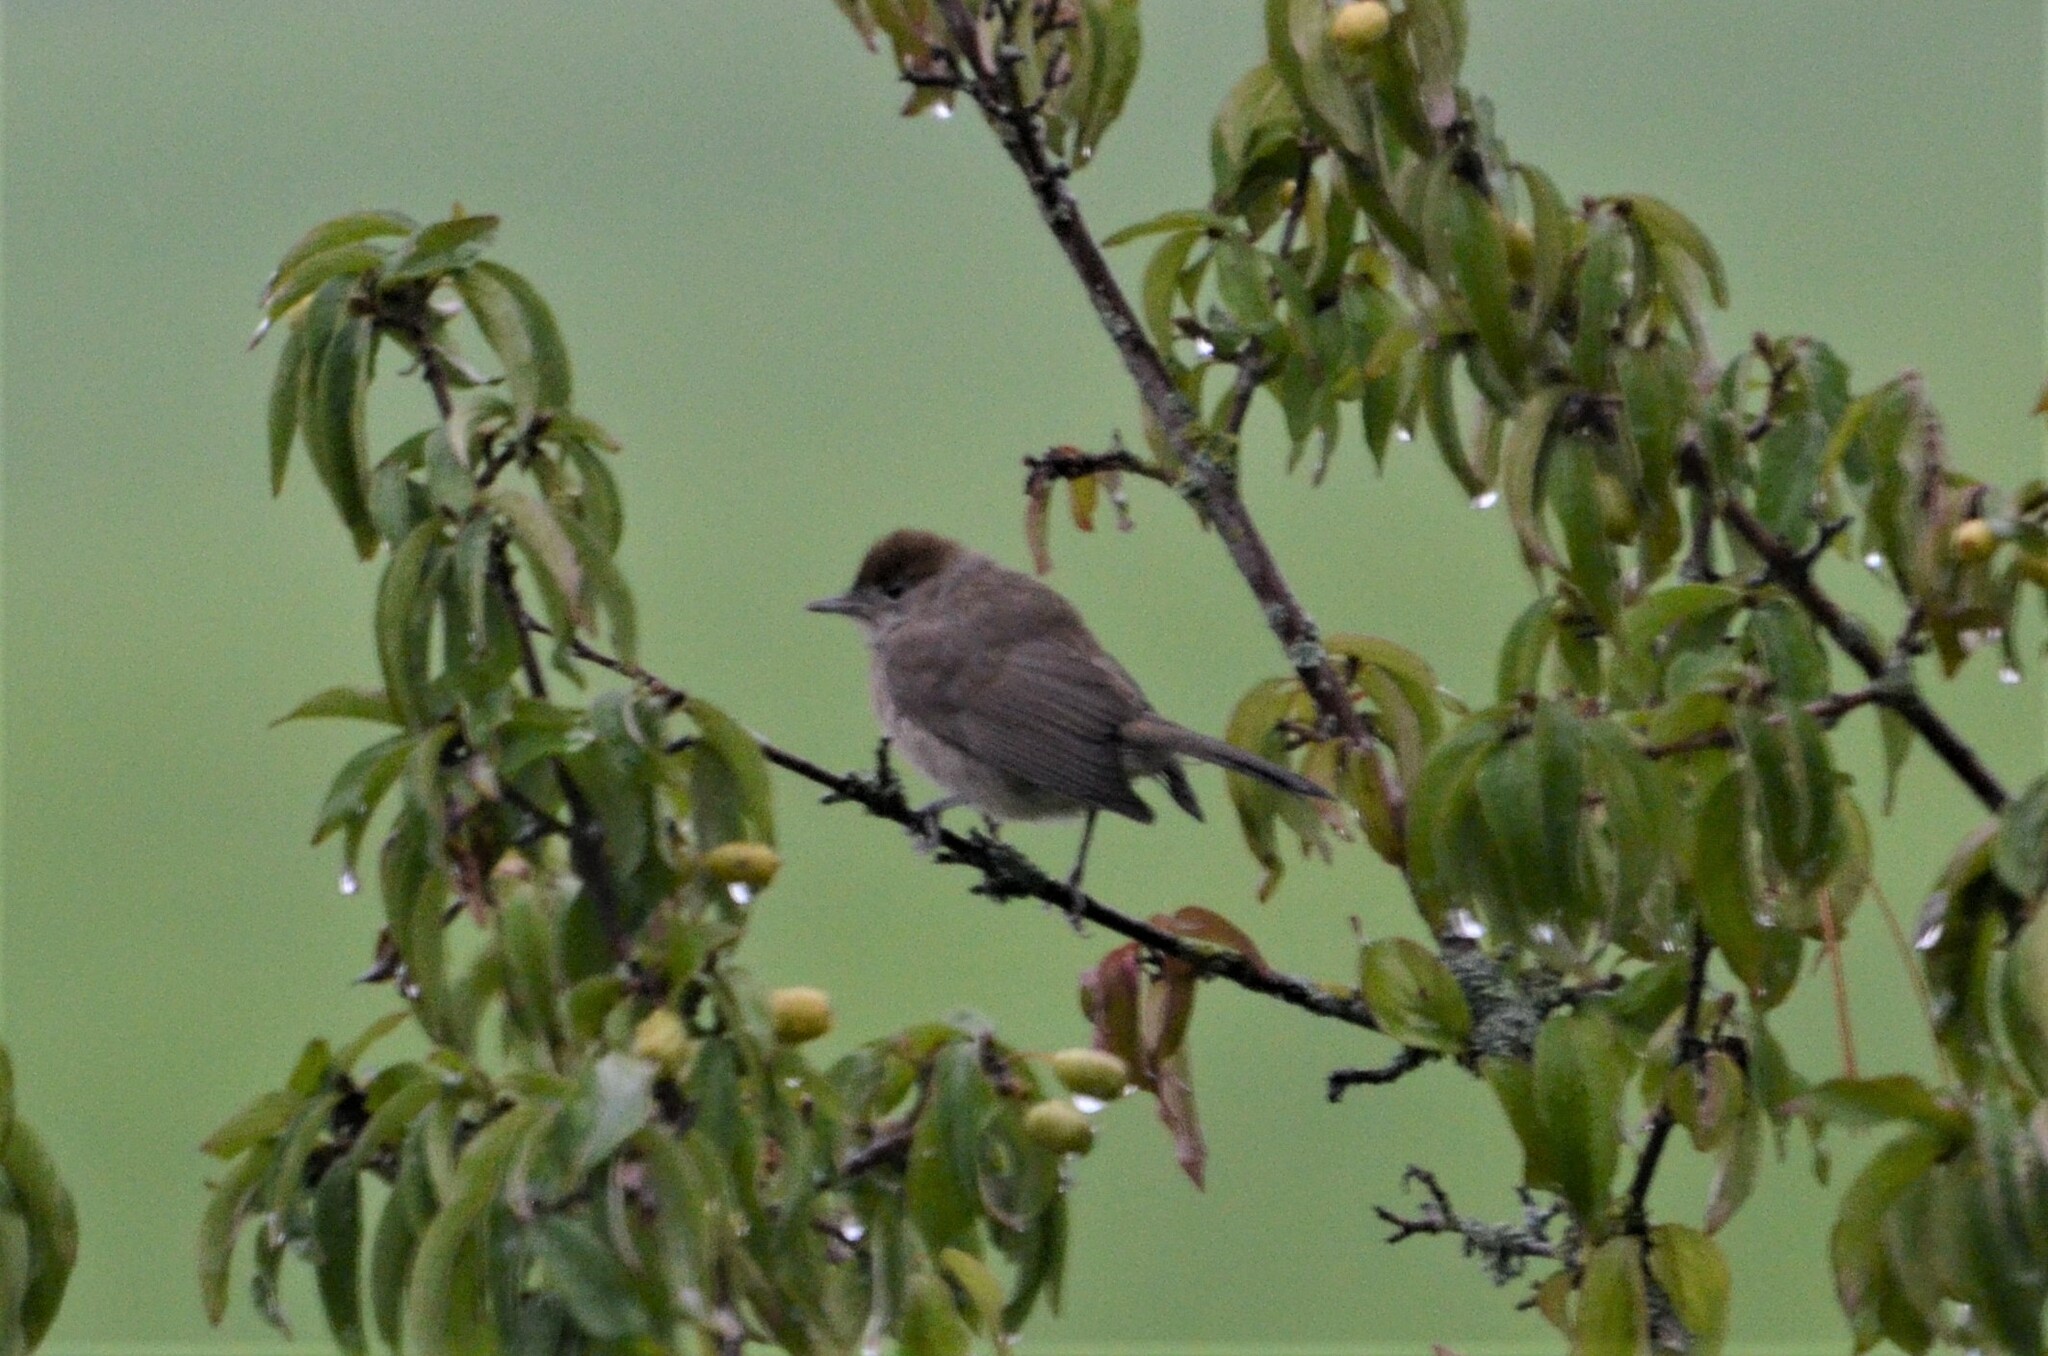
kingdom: Animalia
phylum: Chordata
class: Aves
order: Passeriformes
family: Sylviidae
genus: Sylvia
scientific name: Sylvia atricapilla
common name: Eurasian blackcap
